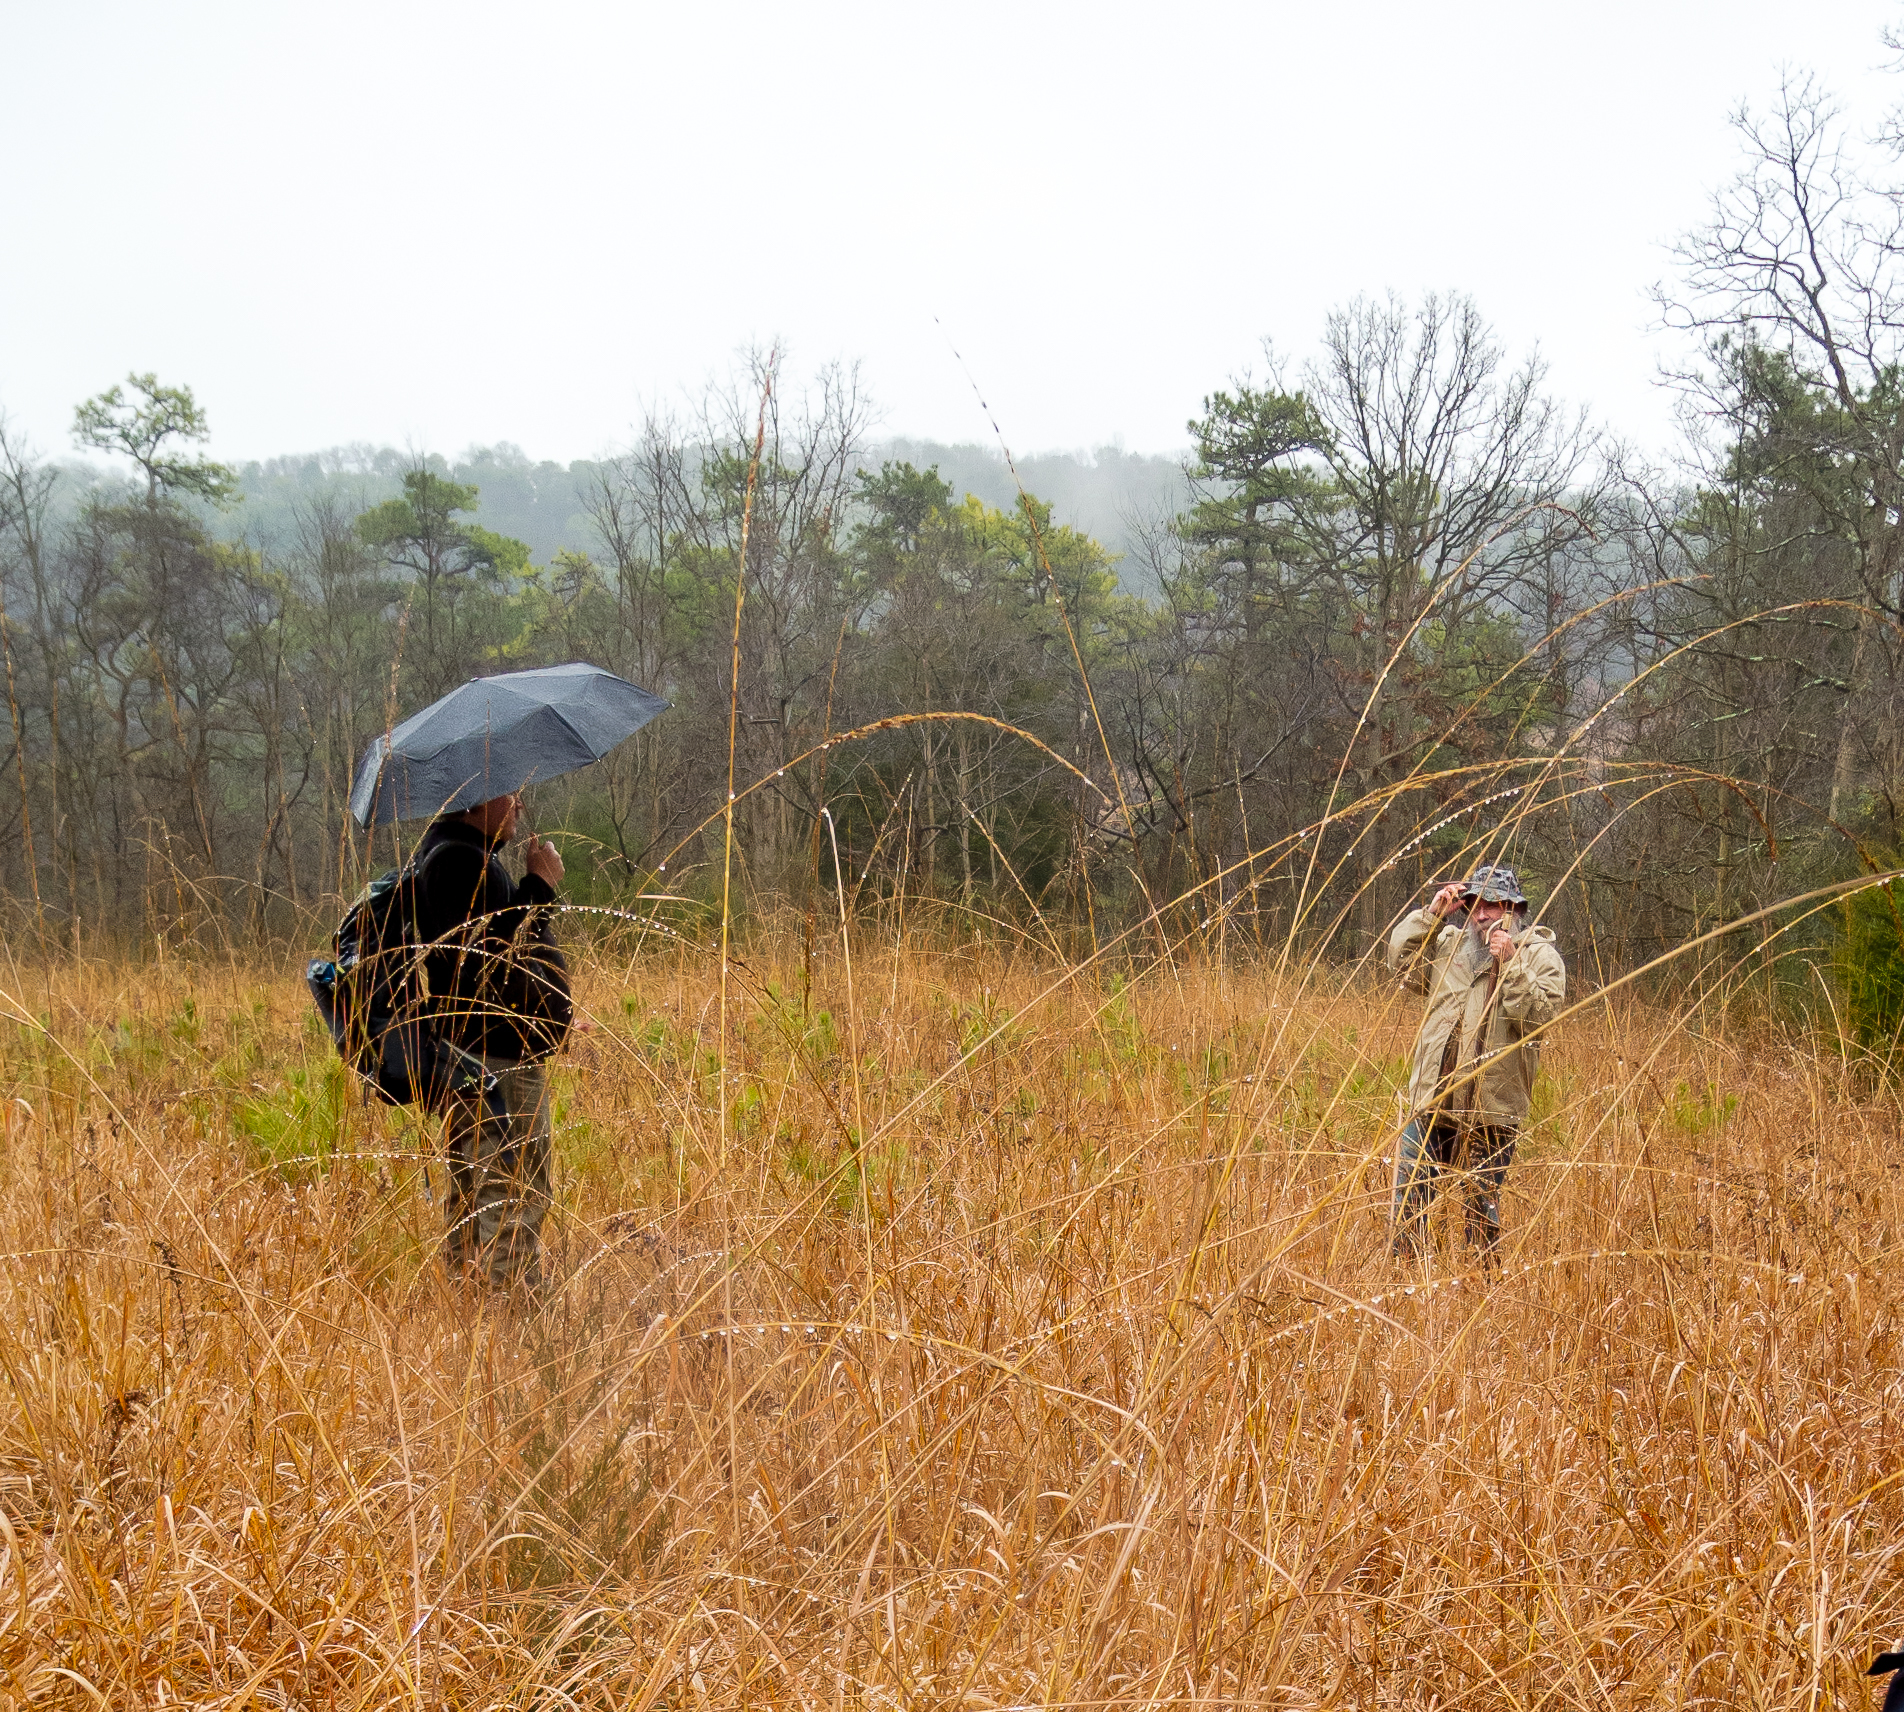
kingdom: Plantae
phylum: Tracheophyta
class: Liliopsida
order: Poales
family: Poaceae
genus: Sorghastrum
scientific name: Sorghastrum nutans
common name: Indian grass
